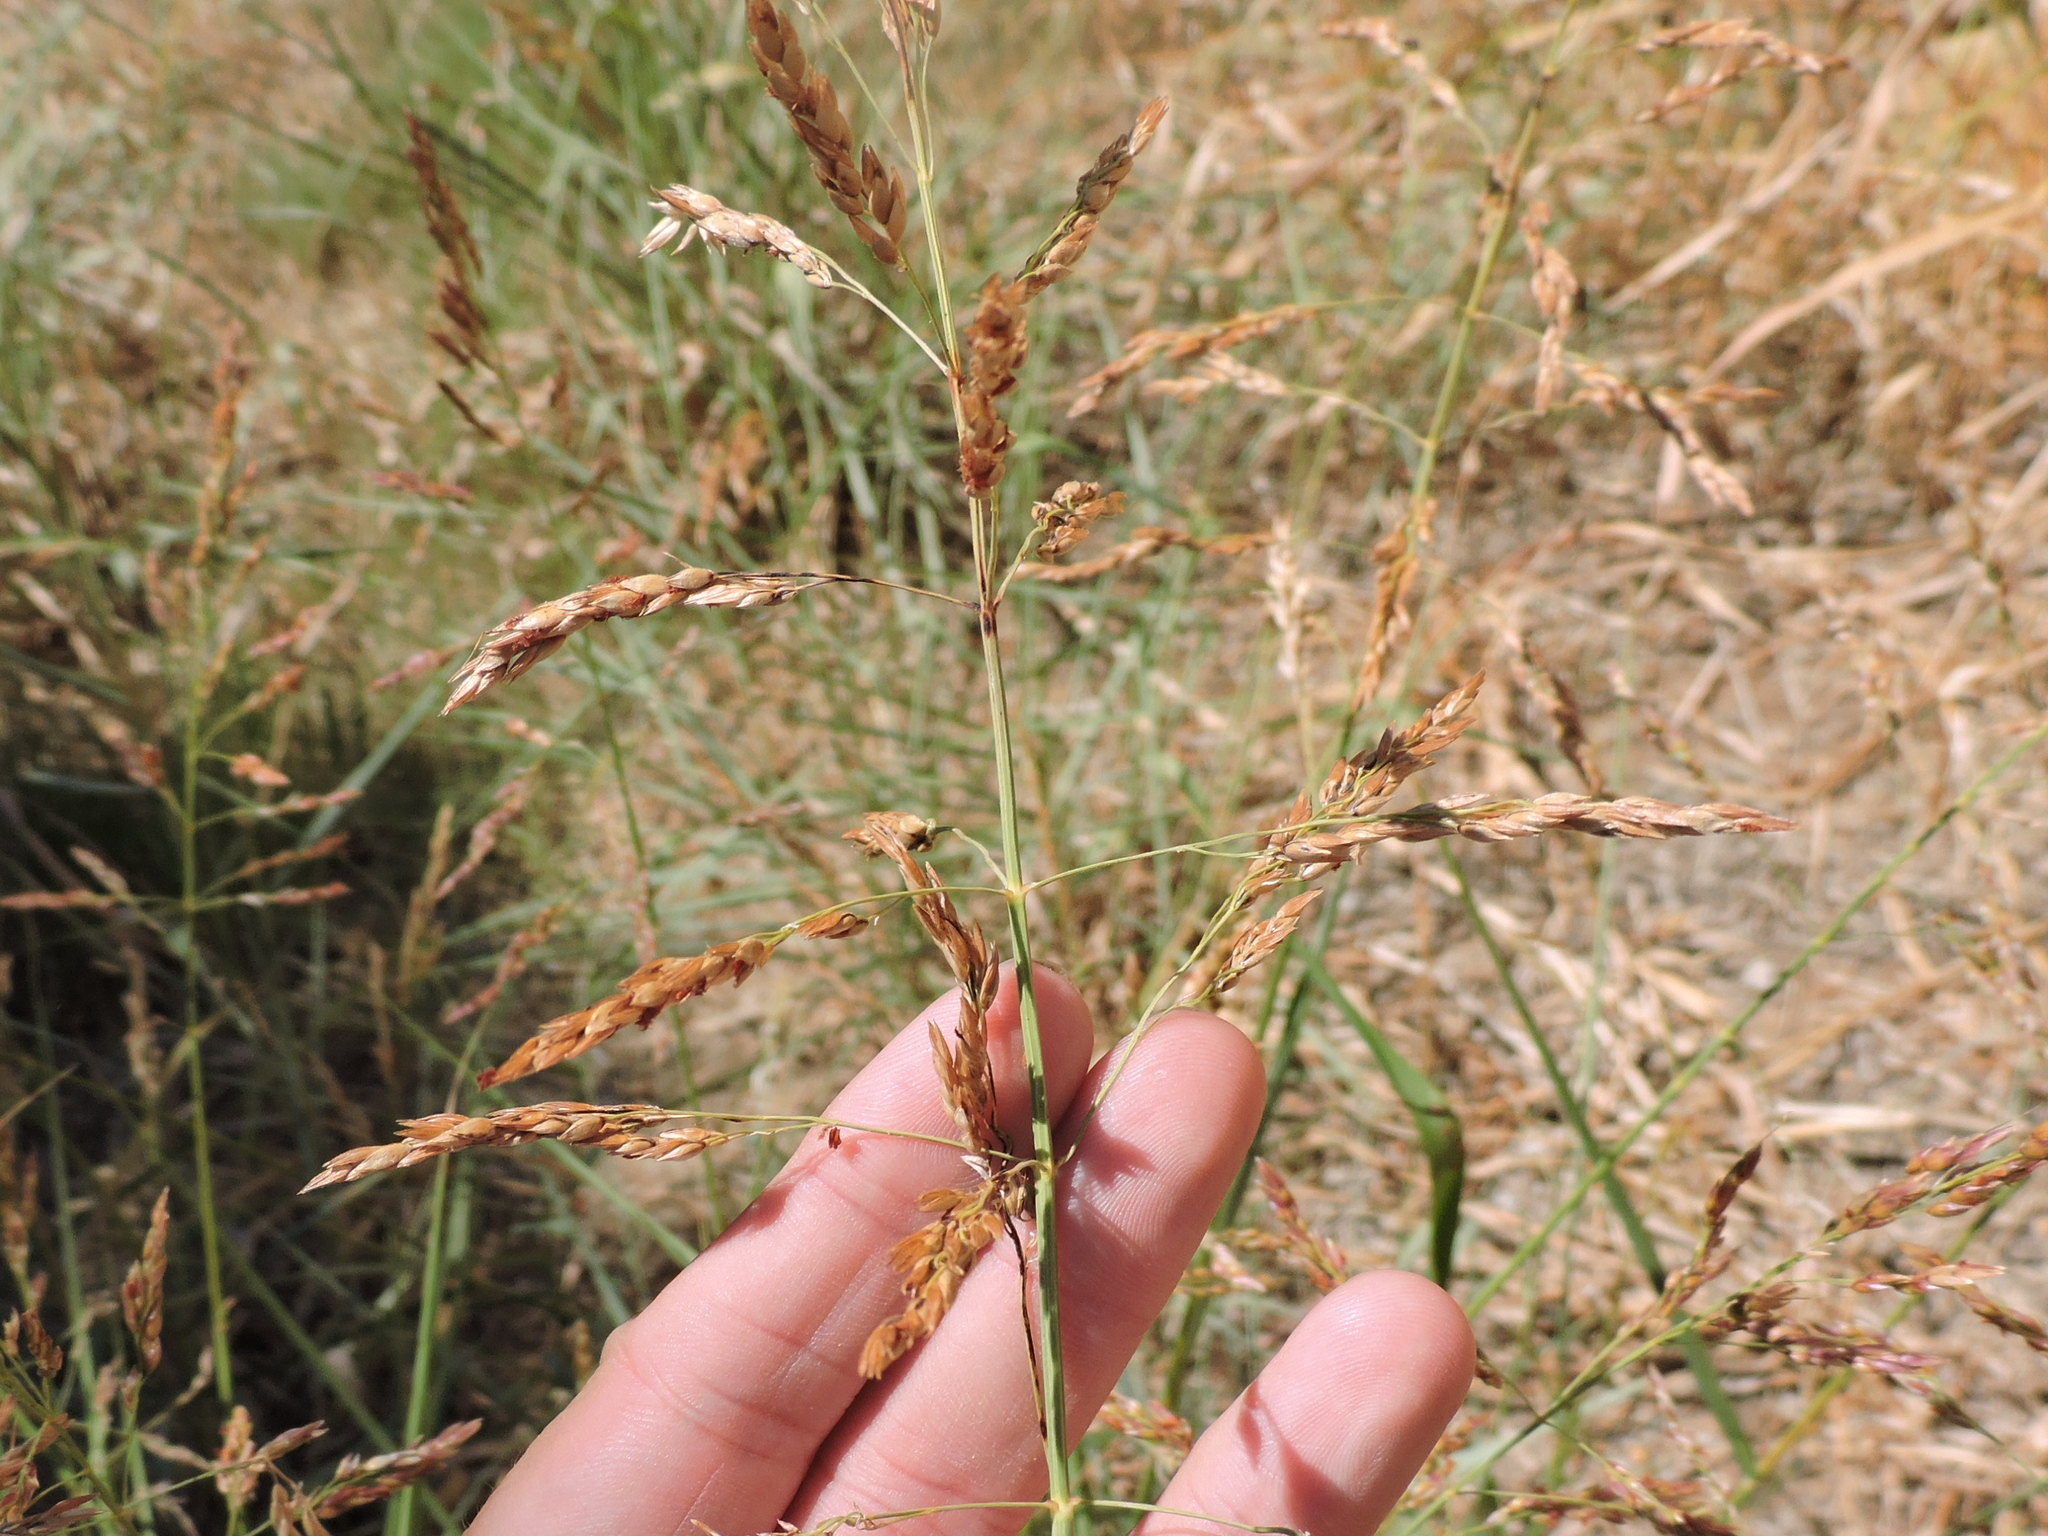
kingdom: Plantae
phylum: Tracheophyta
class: Liliopsida
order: Poales
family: Poaceae
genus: Sorghum
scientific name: Sorghum halepense
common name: Johnson-grass
